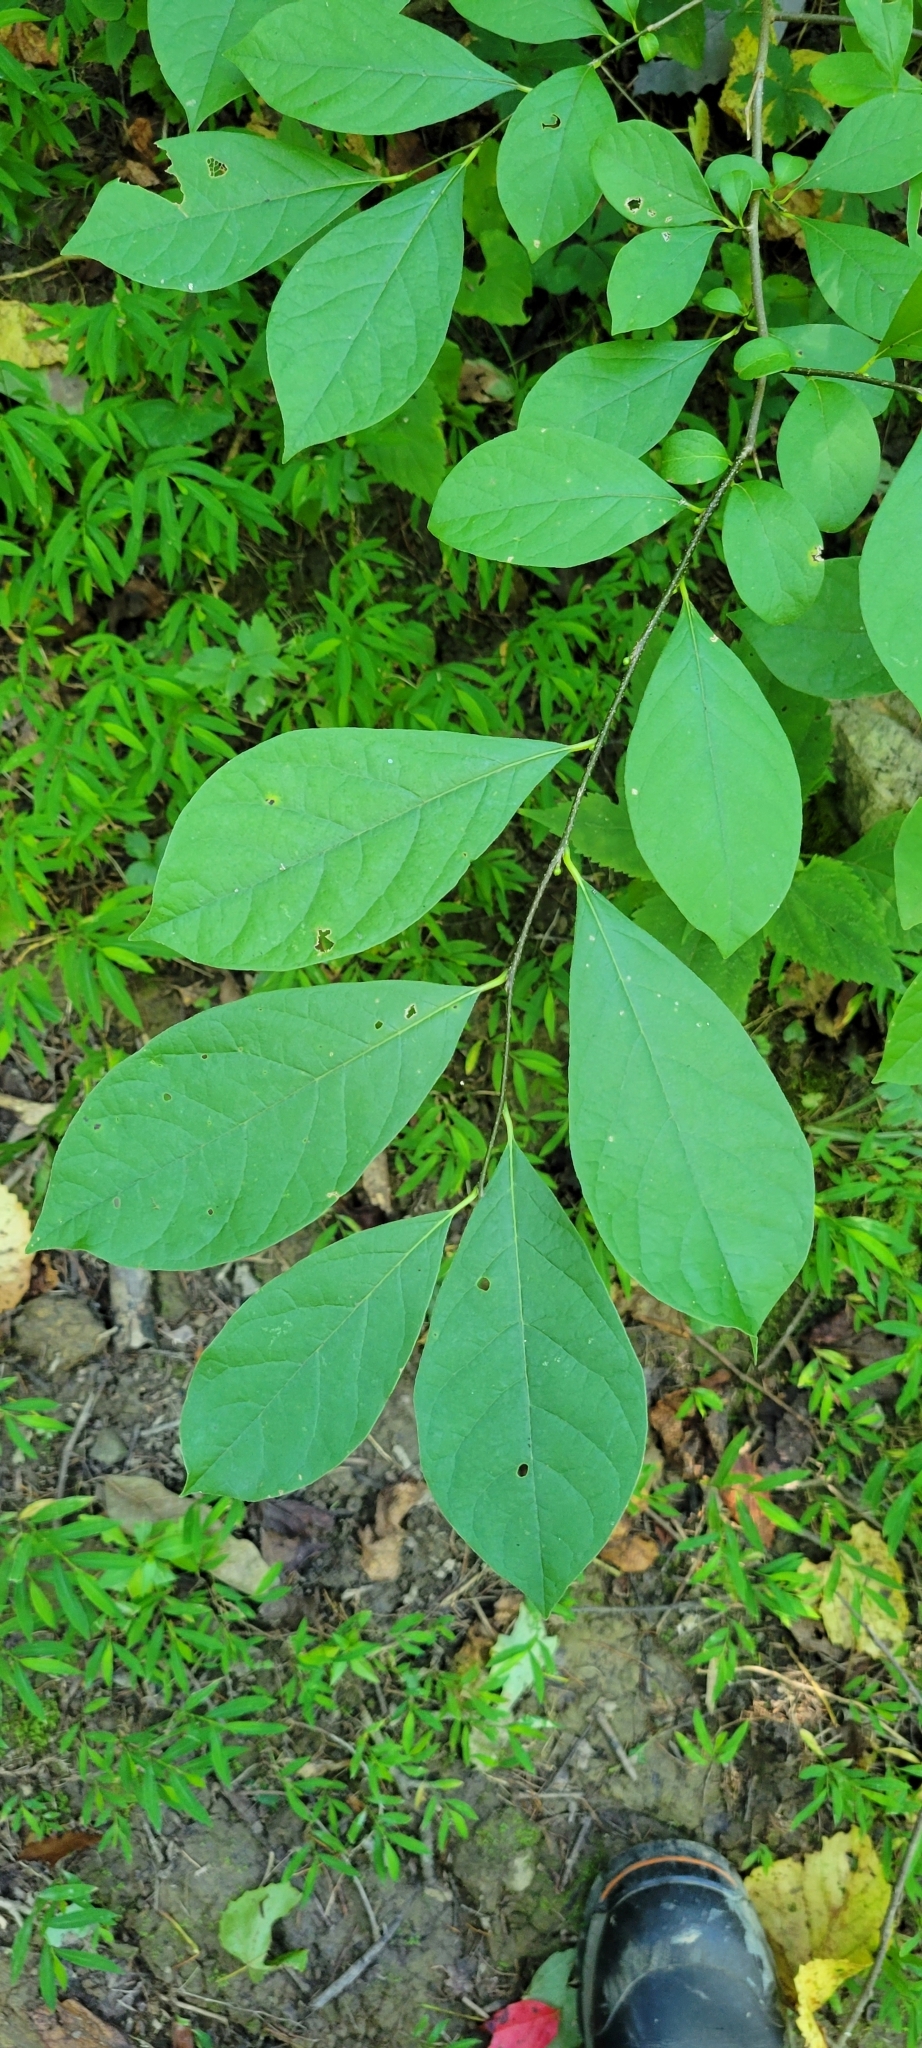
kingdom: Plantae
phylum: Tracheophyta
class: Magnoliopsida
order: Laurales
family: Lauraceae
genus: Lindera
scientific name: Lindera benzoin
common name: Spicebush
